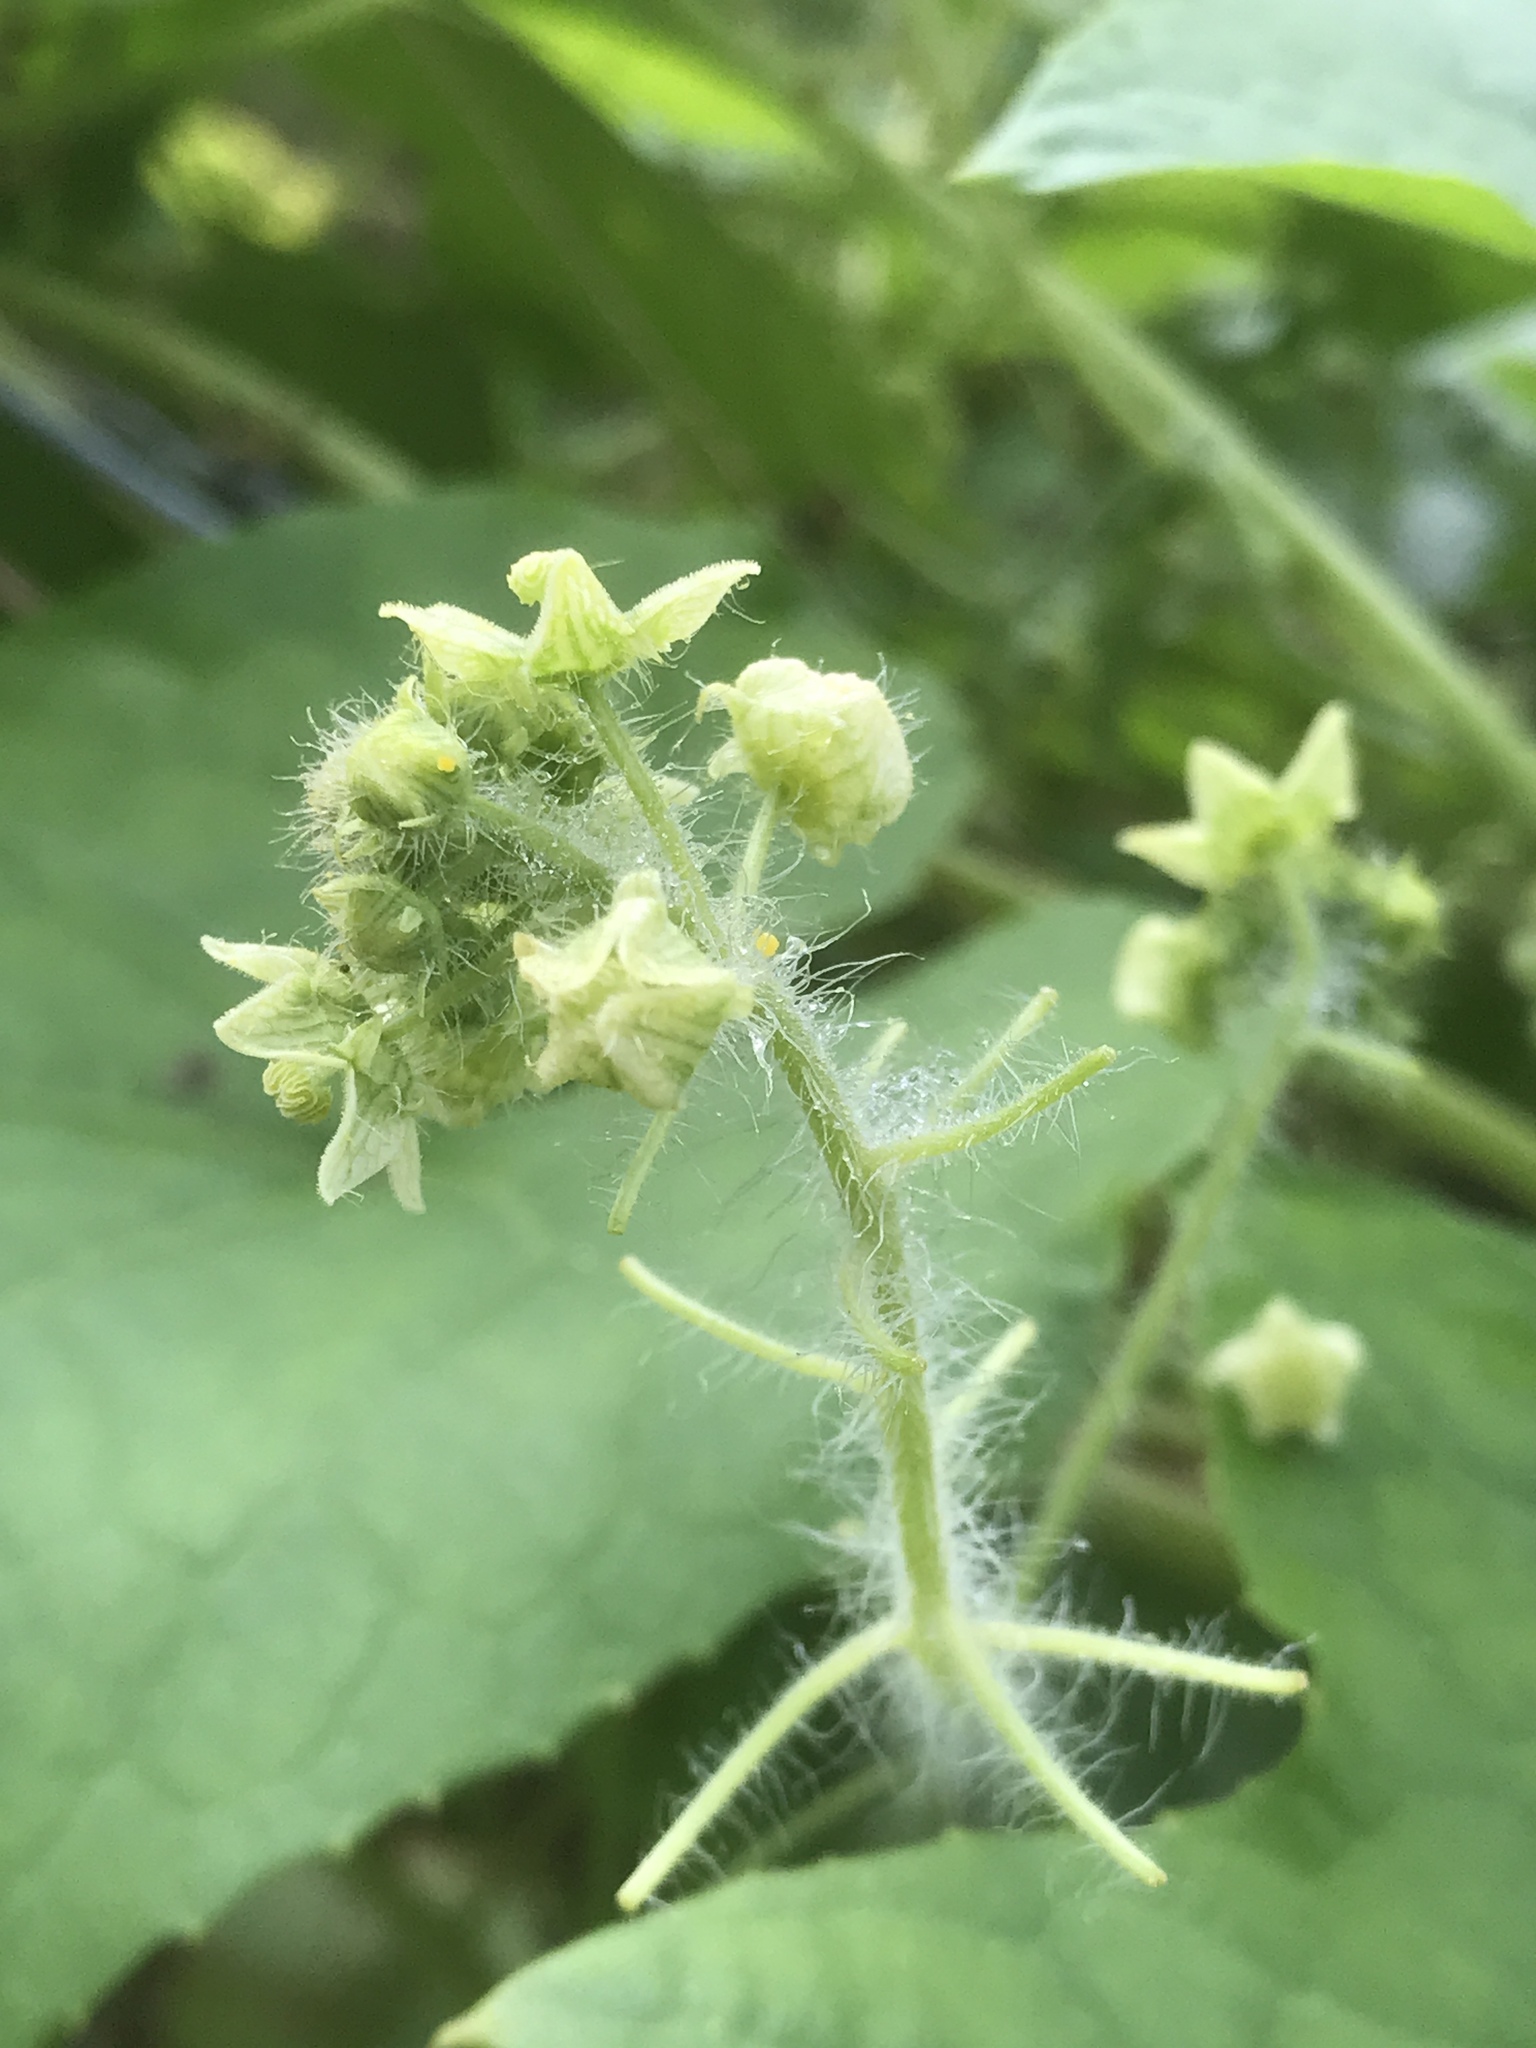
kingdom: Plantae
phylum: Tracheophyta
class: Magnoliopsida
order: Cucurbitales
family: Cucurbitaceae
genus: Sicyos
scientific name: Sicyos angulatus
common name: Angled burr cucumber
